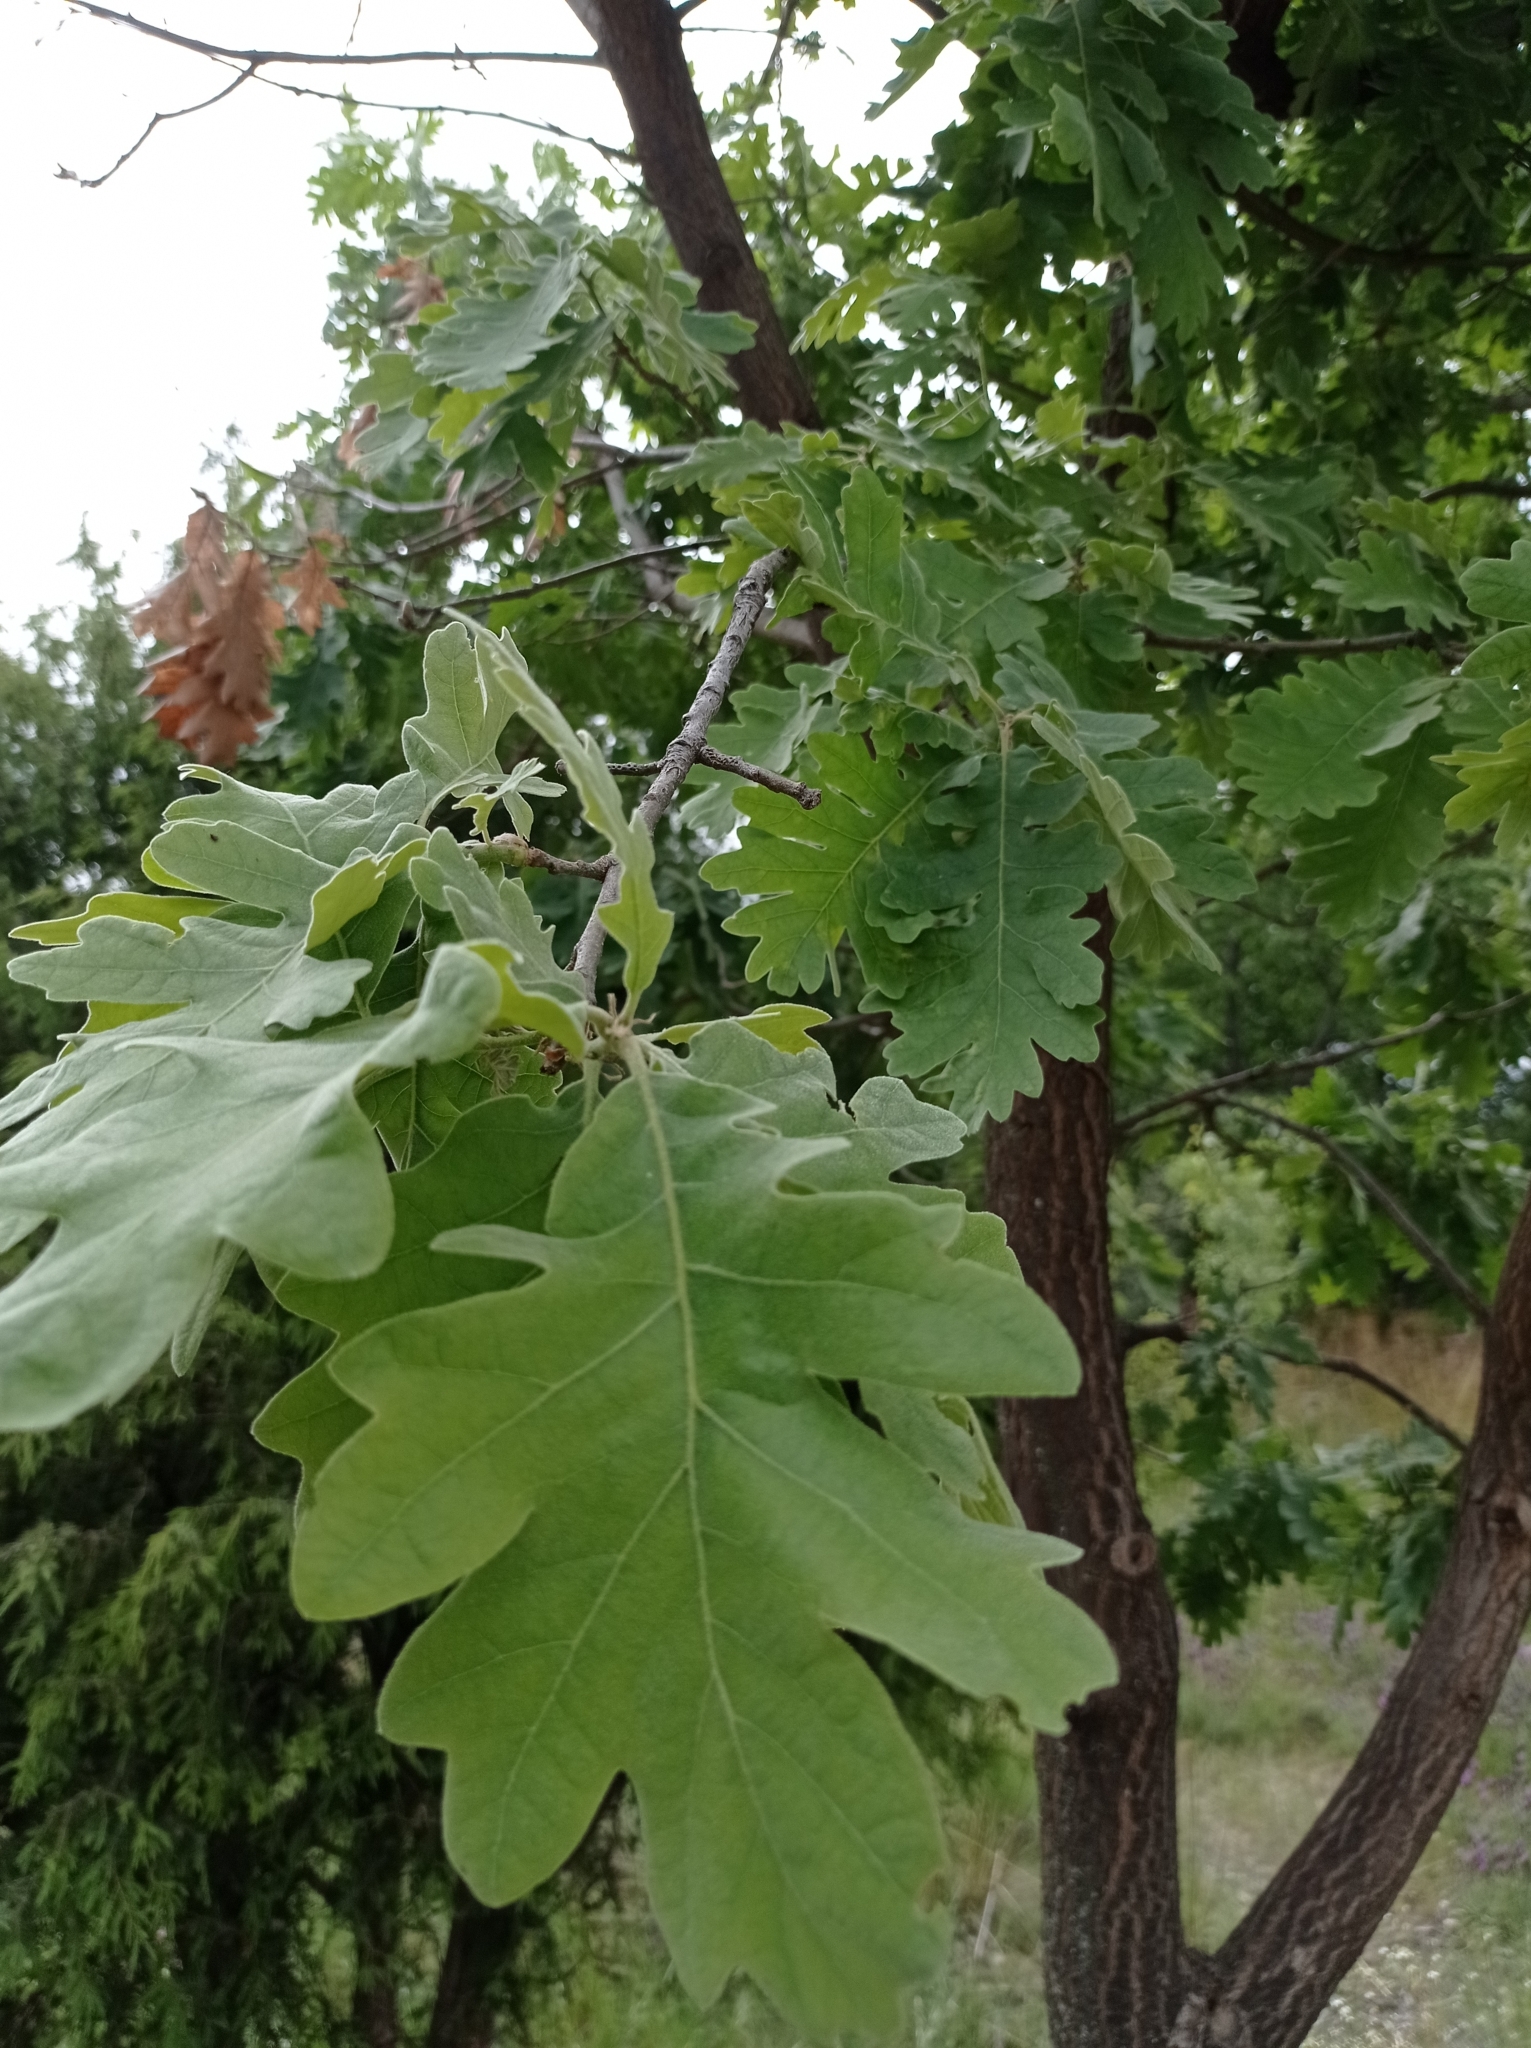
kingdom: Plantae
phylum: Tracheophyta
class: Magnoliopsida
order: Fagales
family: Fagaceae
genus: Quercus
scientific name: Quercus pyrenaica
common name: Pyrenean oak
